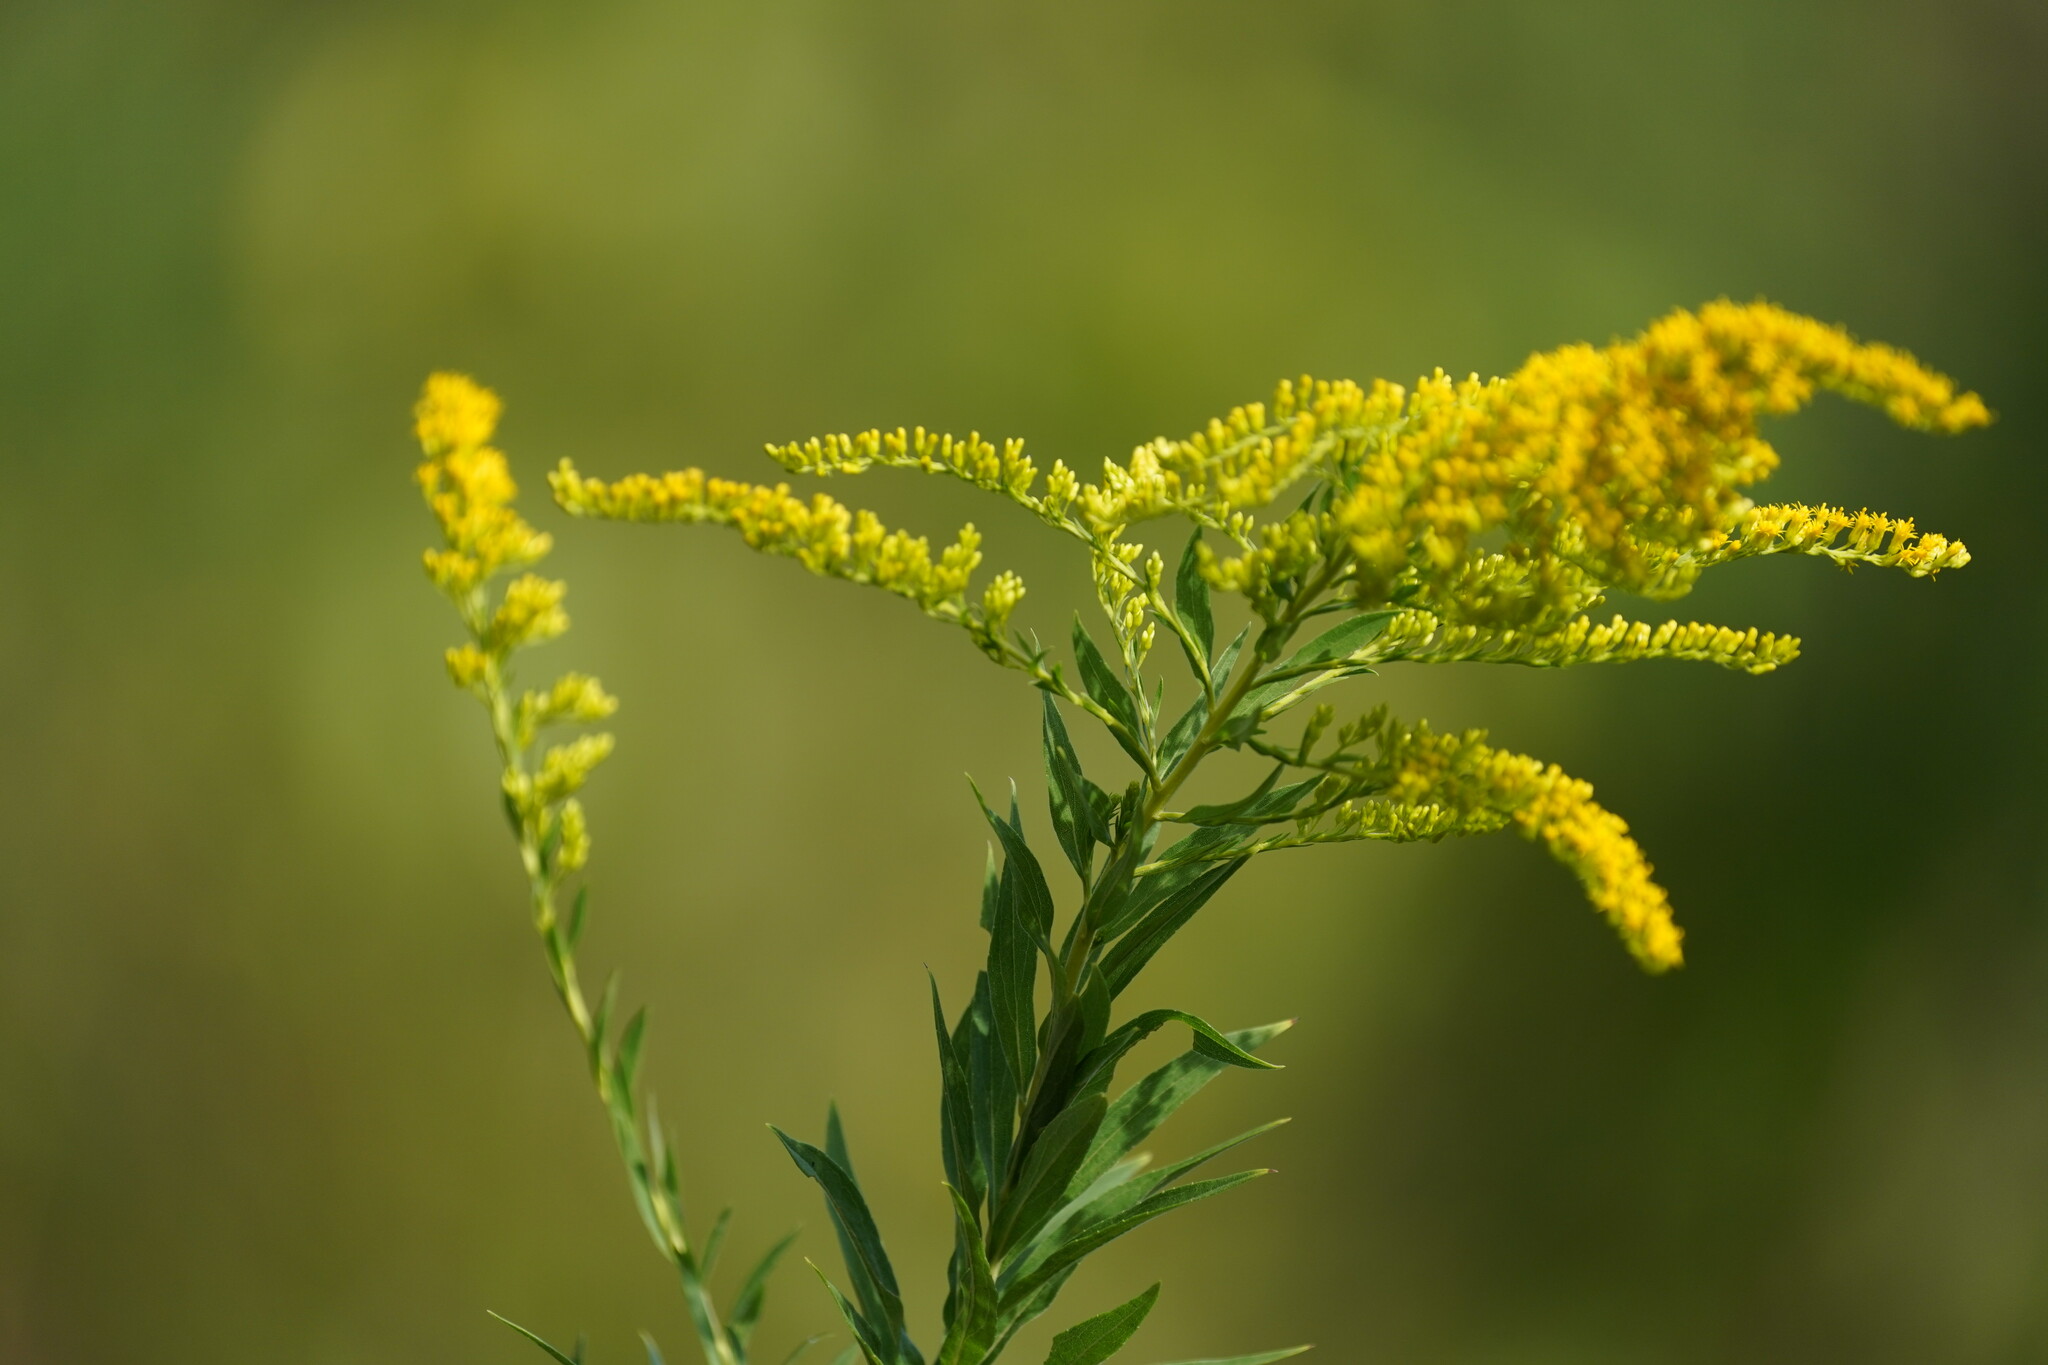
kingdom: Plantae
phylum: Tracheophyta
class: Magnoliopsida
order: Asterales
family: Asteraceae
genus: Solidago
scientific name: Solidago altissima
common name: Late goldenrod
